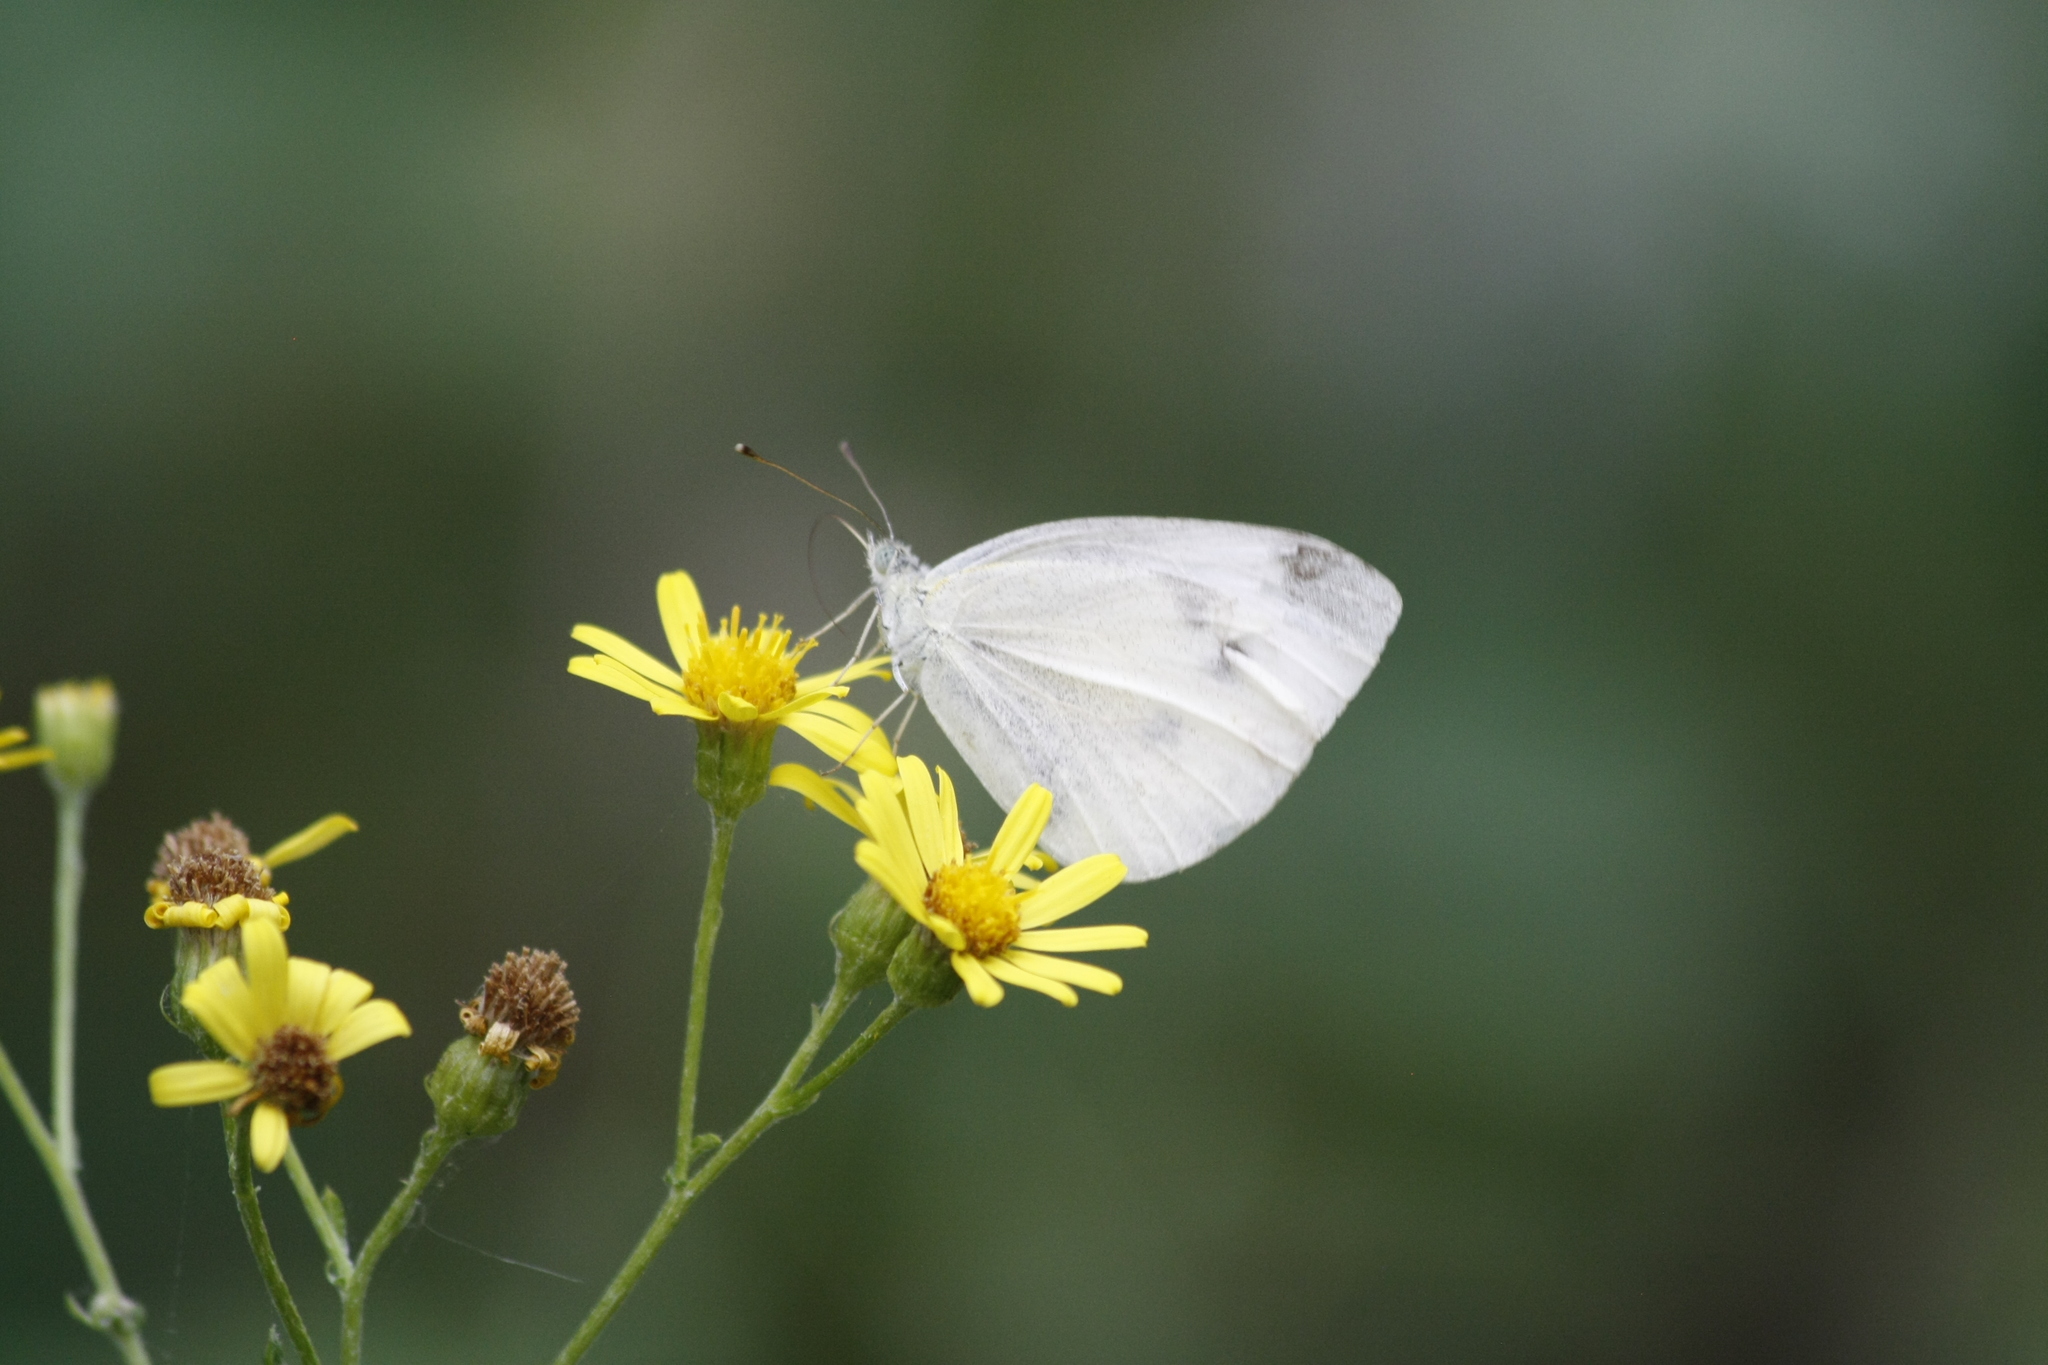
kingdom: Animalia
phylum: Arthropoda
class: Insecta
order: Lepidoptera
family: Pieridae
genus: Pieris
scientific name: Pieris rapae
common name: Small white
